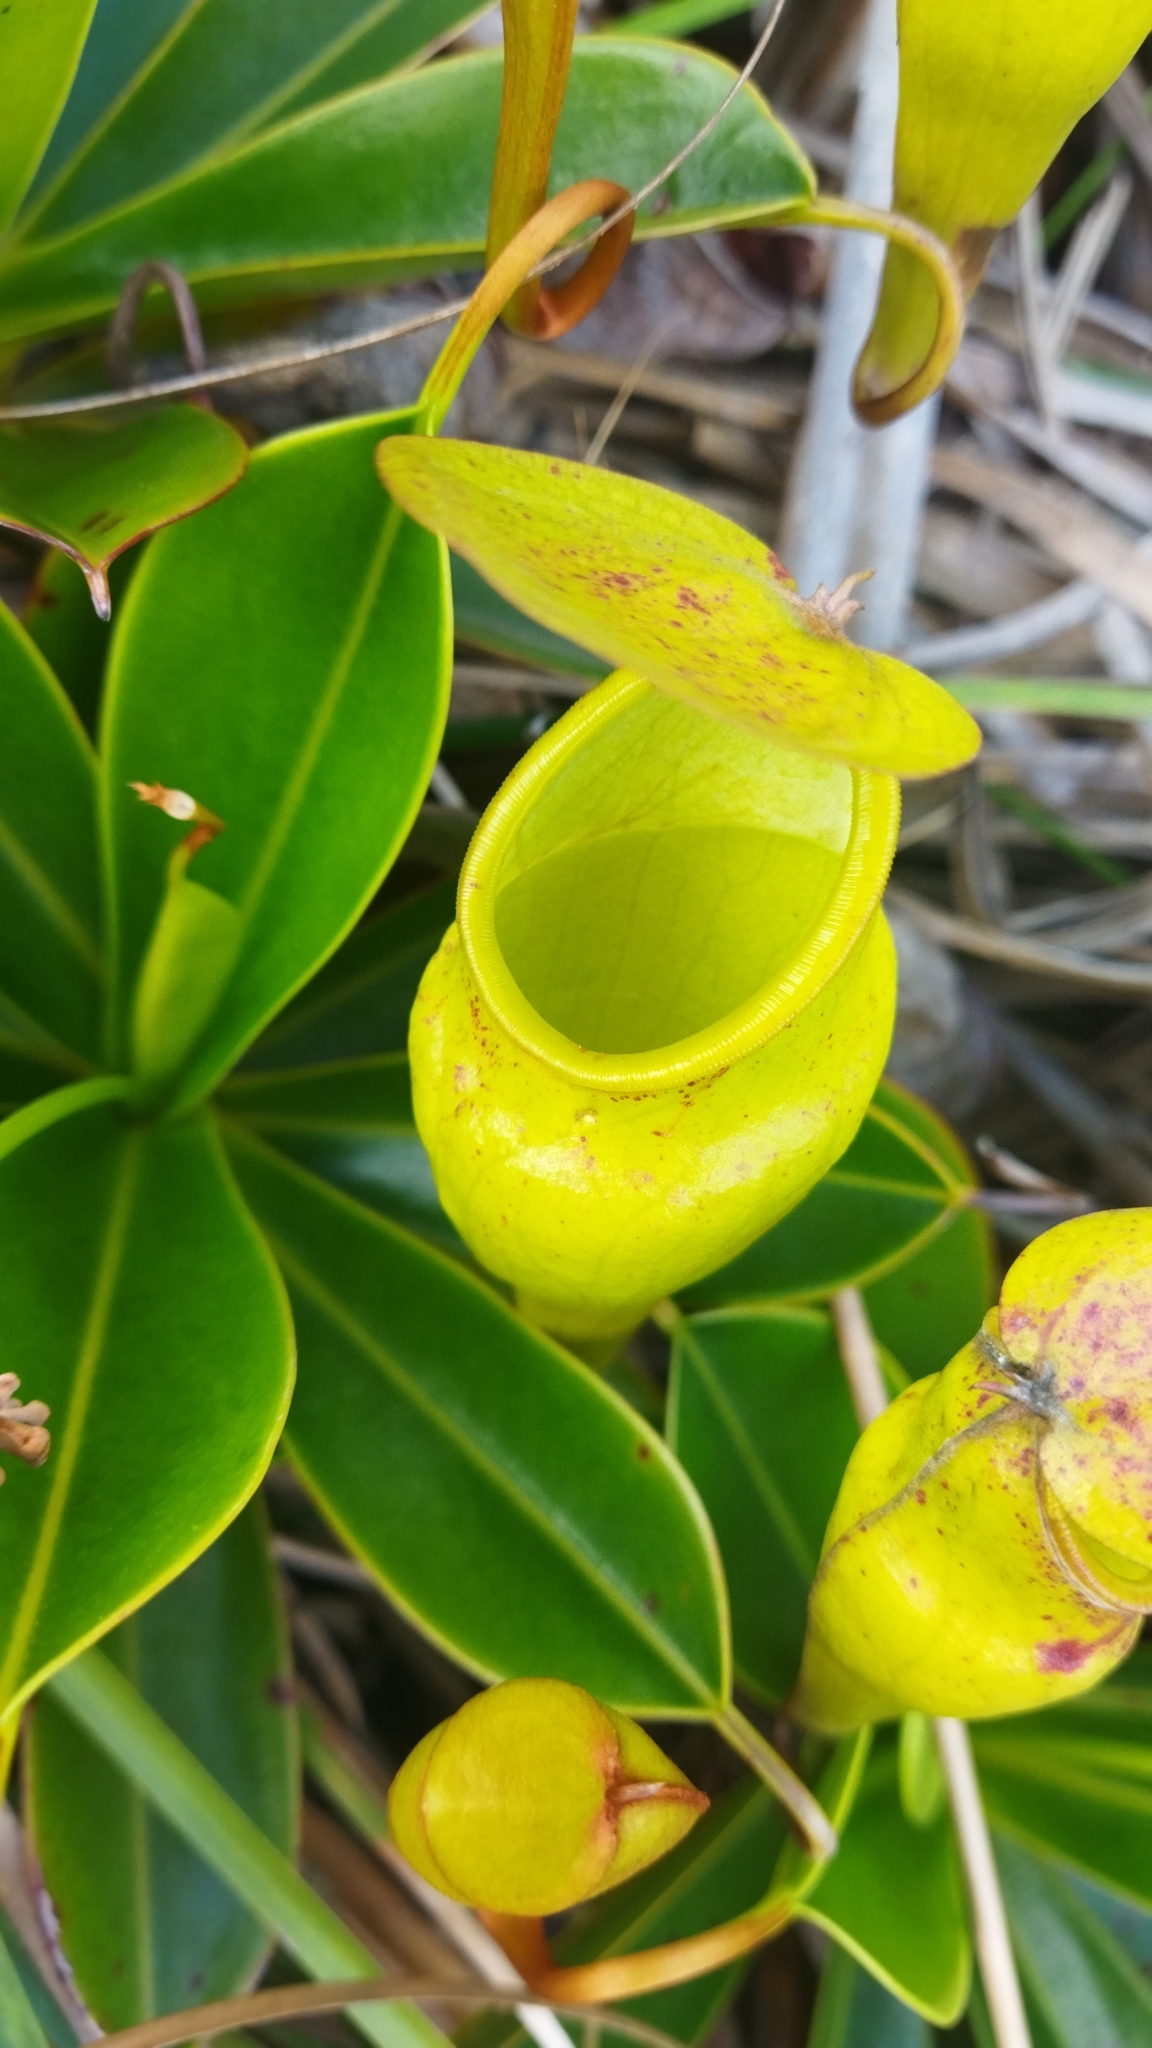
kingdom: Plantae
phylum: Tracheophyta
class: Magnoliopsida
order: Caryophyllales
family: Nepenthaceae
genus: Nepenthes
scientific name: Nepenthes pervillei
